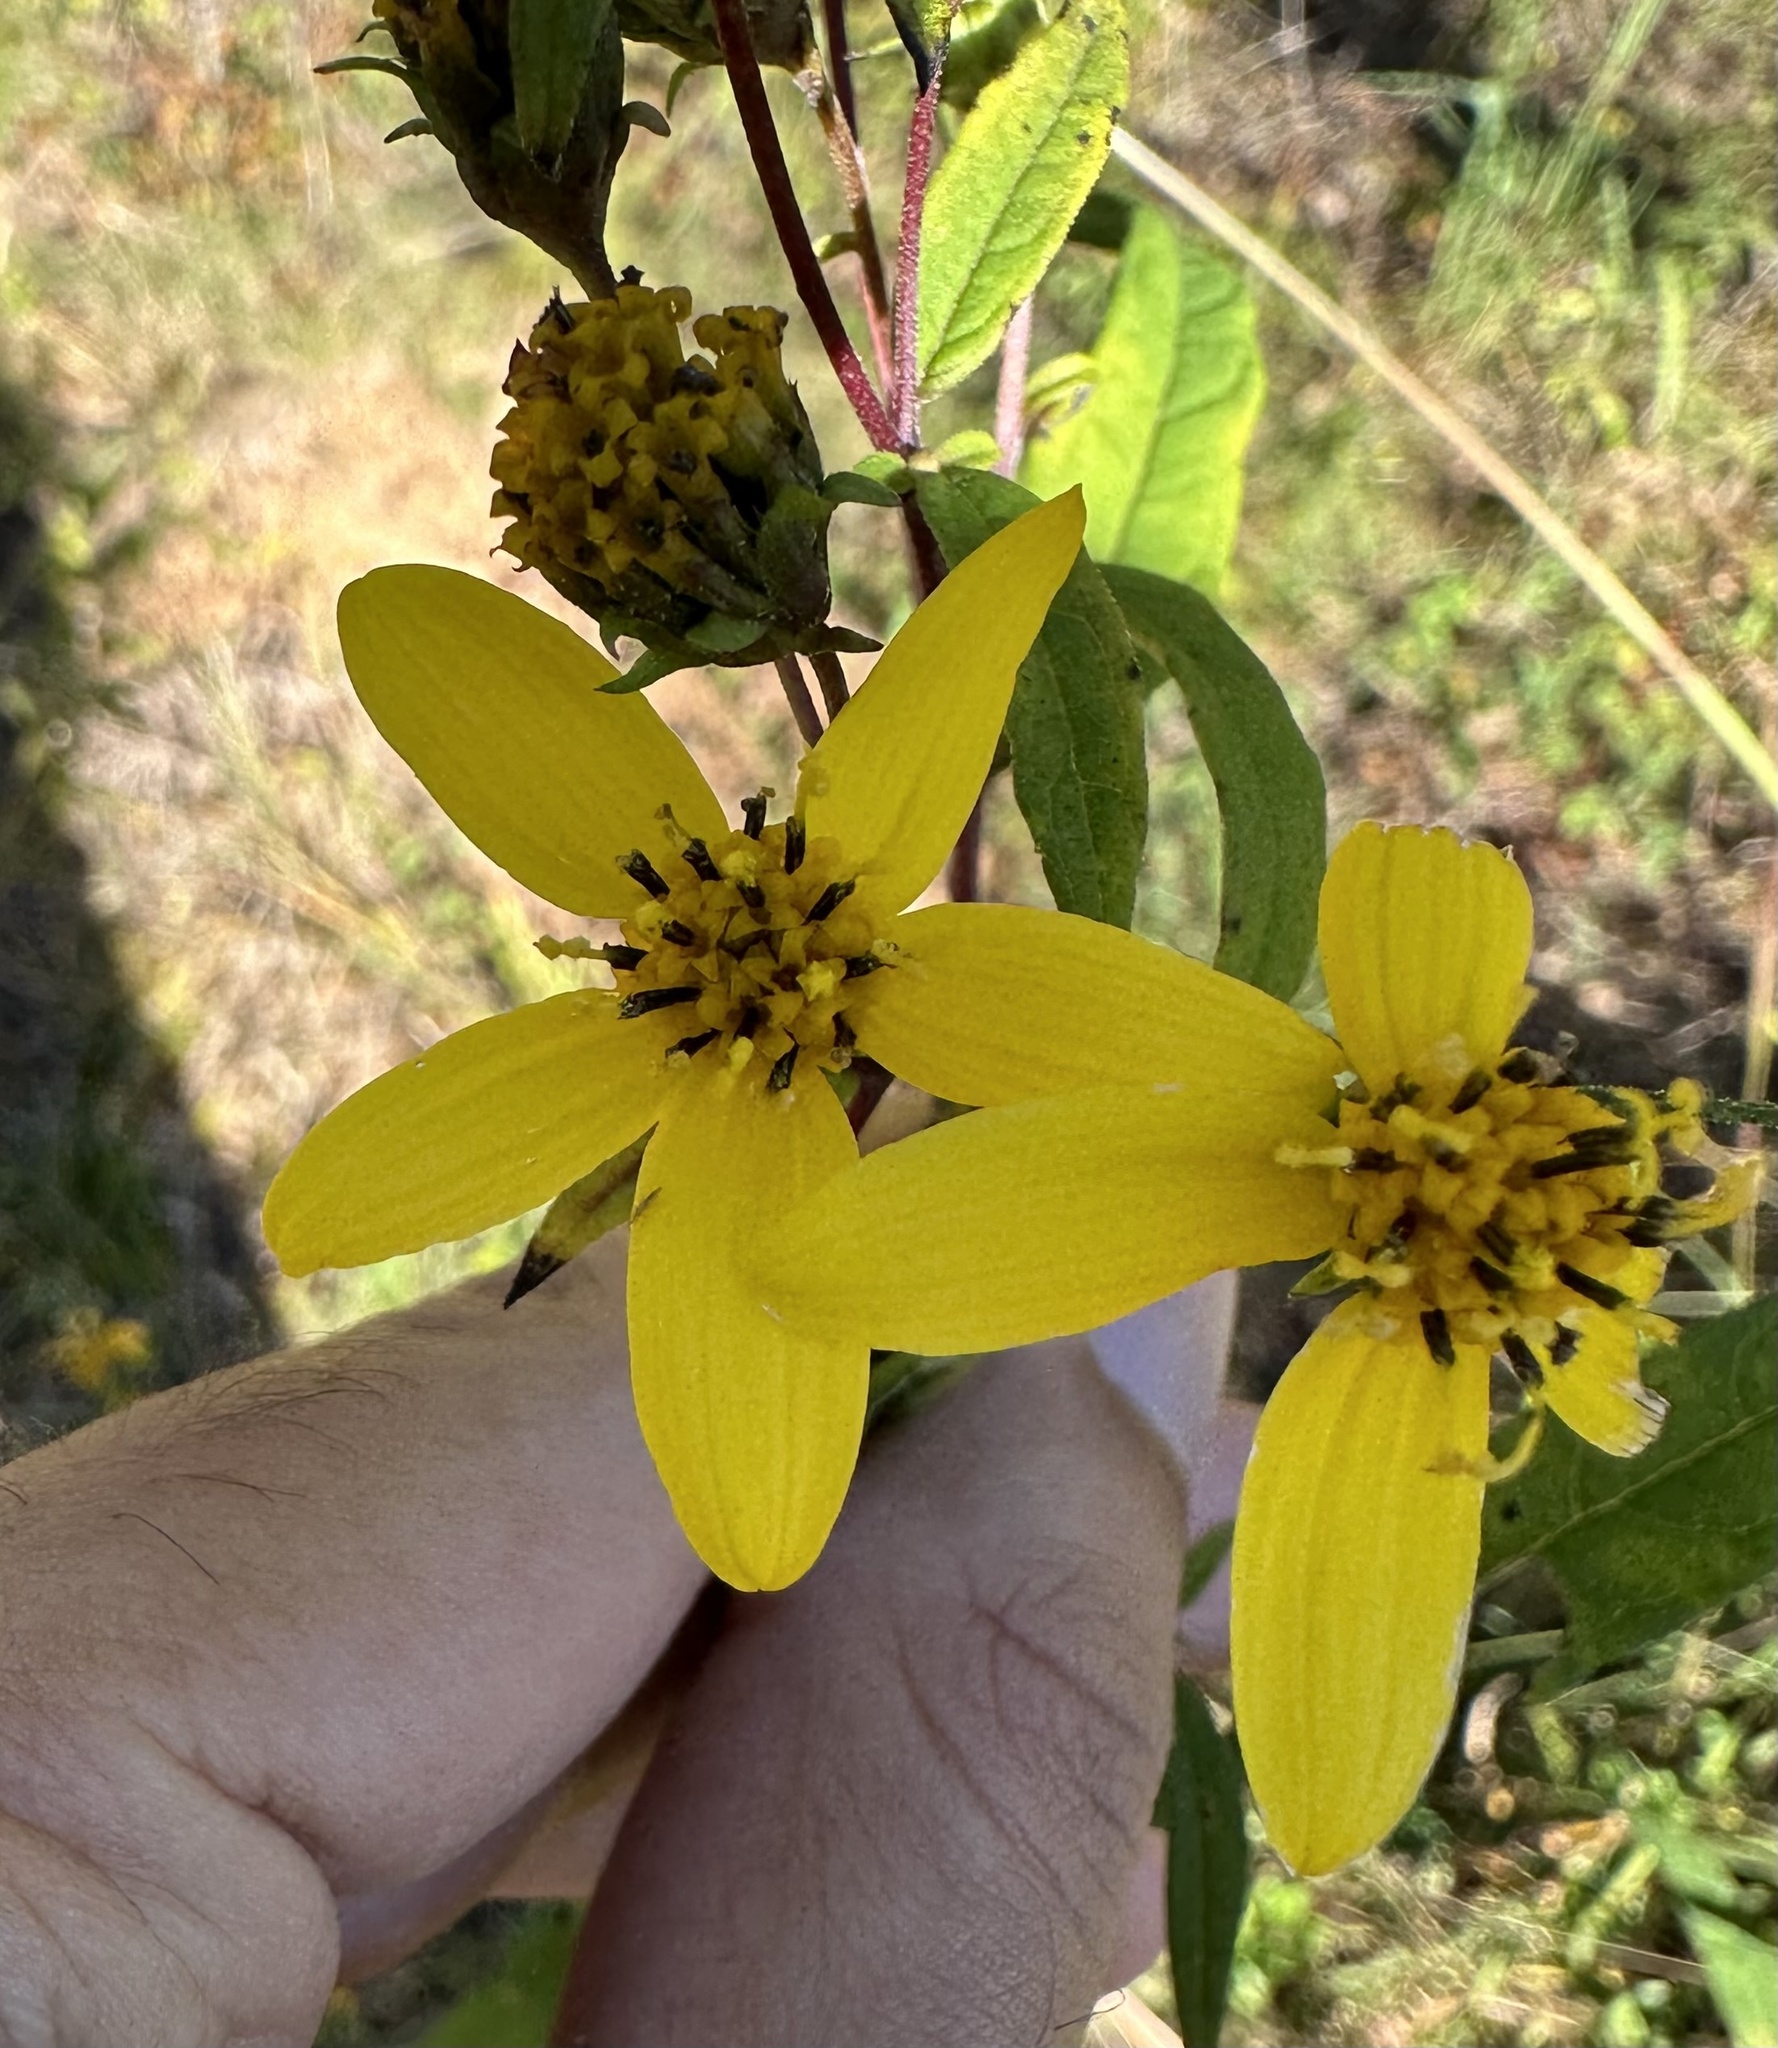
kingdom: Plantae
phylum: Tracheophyta
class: Magnoliopsida
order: Asterales
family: Asteraceae
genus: Helianthus
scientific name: Helianthus microcephalus
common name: Woodland sunflower
